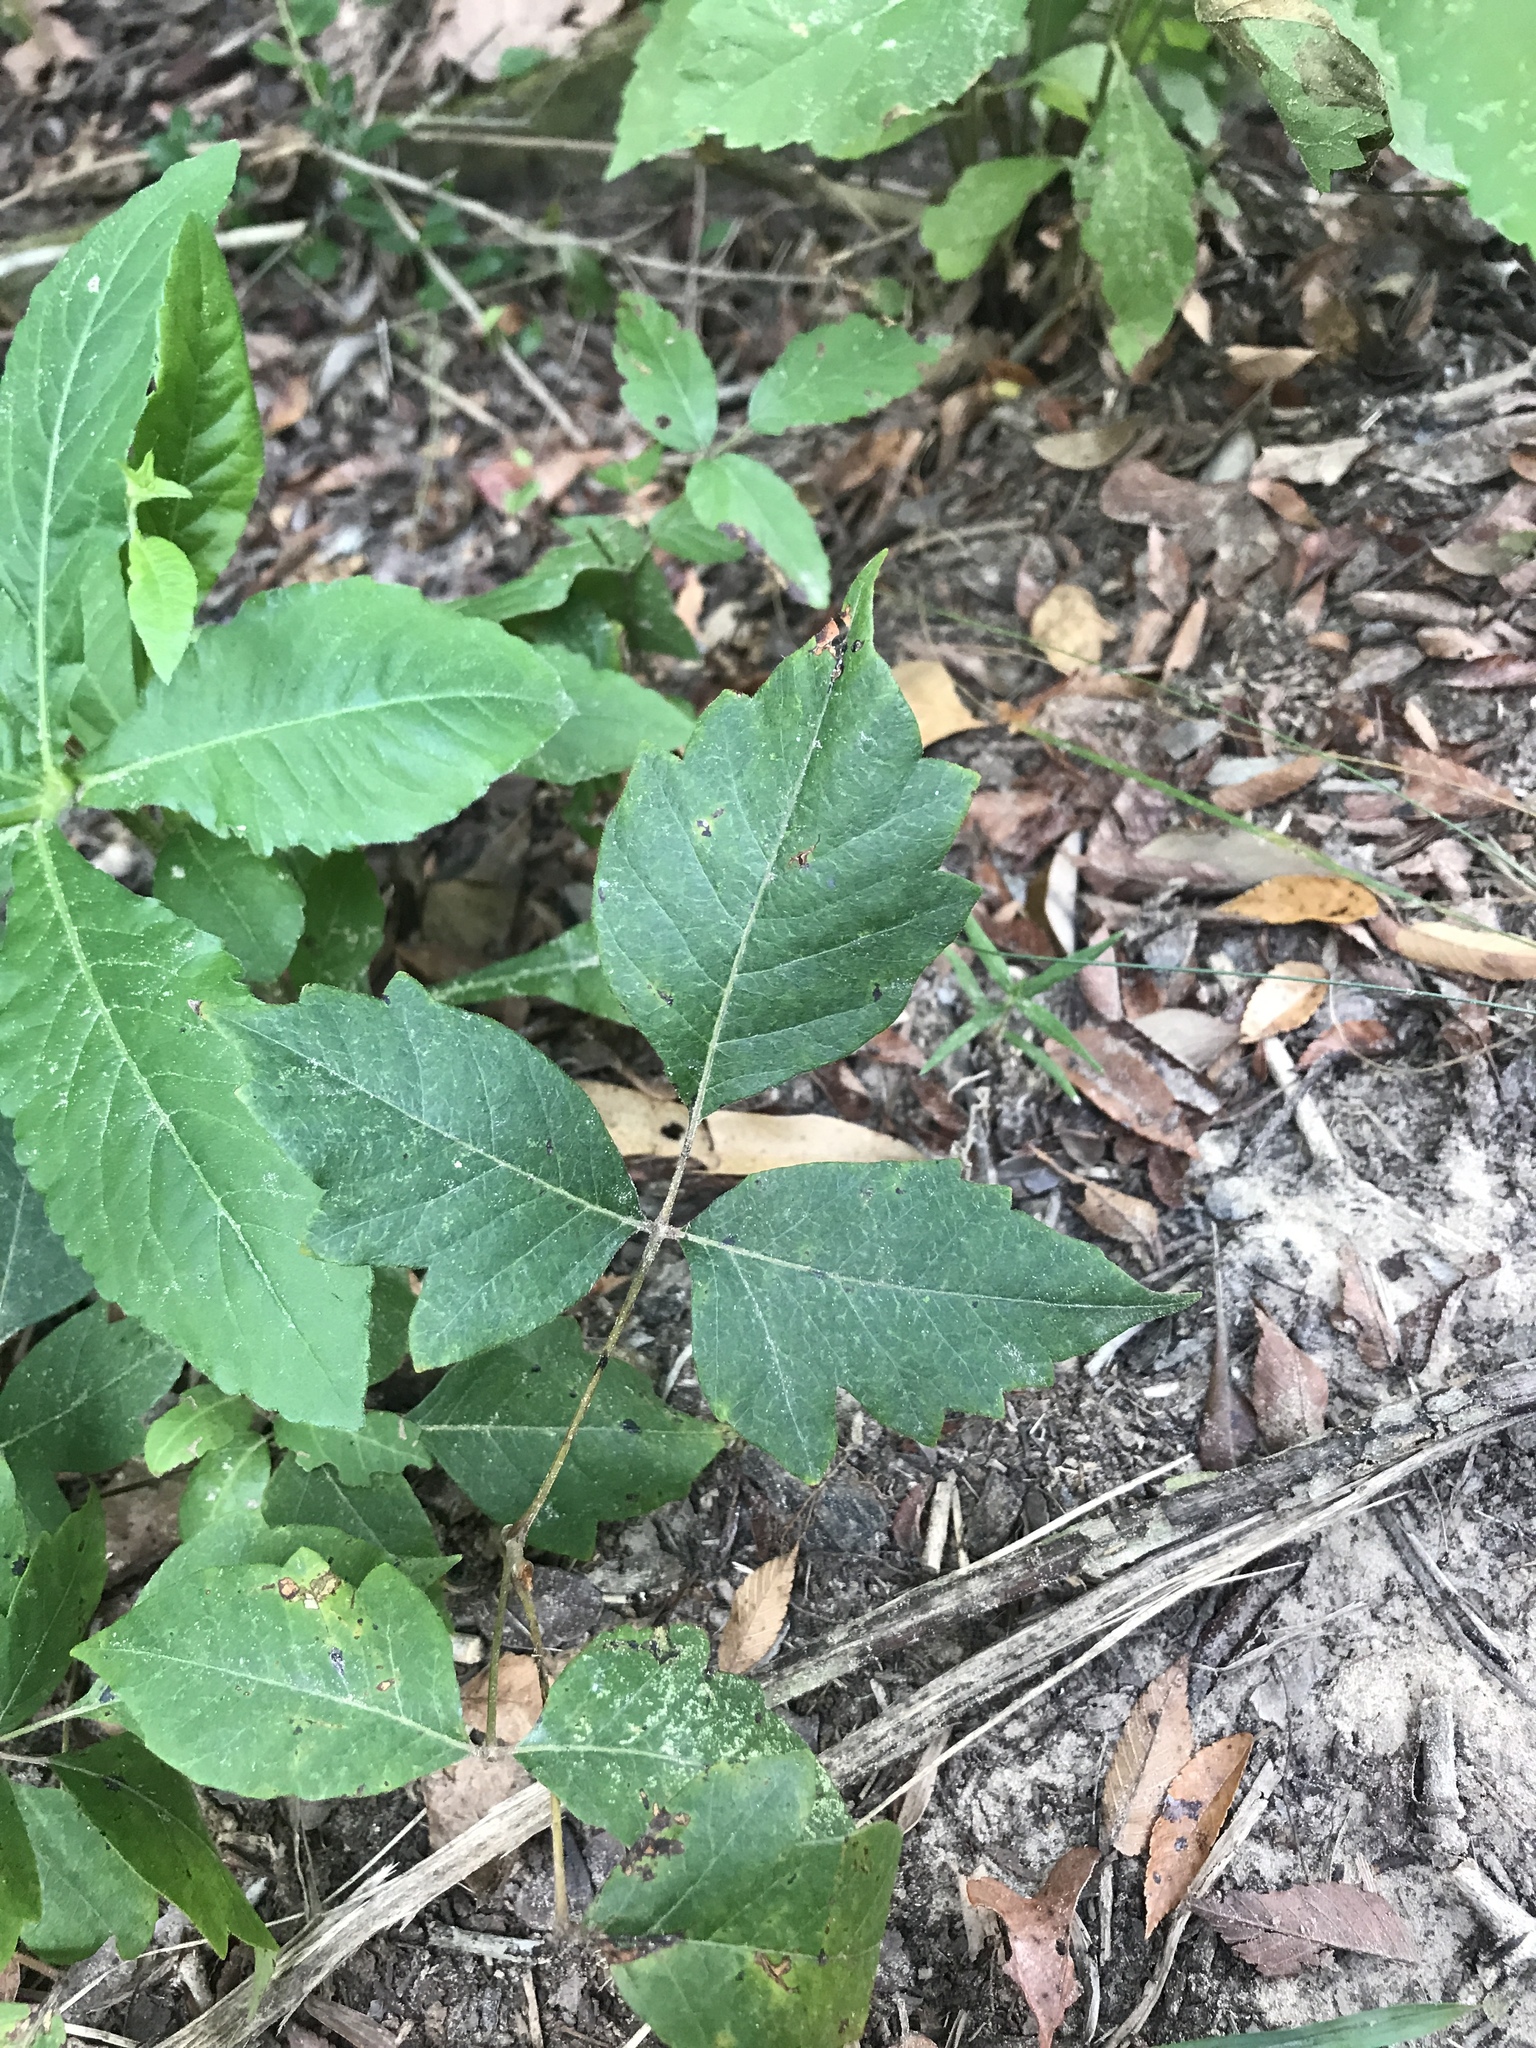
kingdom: Plantae
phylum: Tracheophyta
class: Magnoliopsida
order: Sapindales
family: Anacardiaceae
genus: Toxicodendron
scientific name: Toxicodendron radicans
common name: Poison ivy
